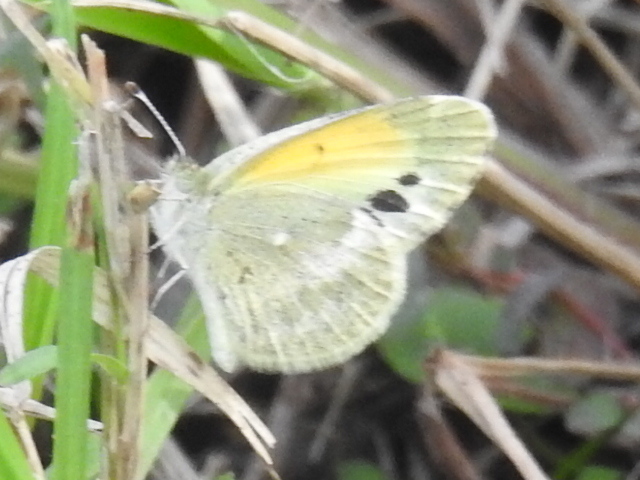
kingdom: Animalia
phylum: Arthropoda
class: Insecta
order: Lepidoptera
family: Pieridae
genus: Nathalis
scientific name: Nathalis iole
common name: Dainty sulphur
